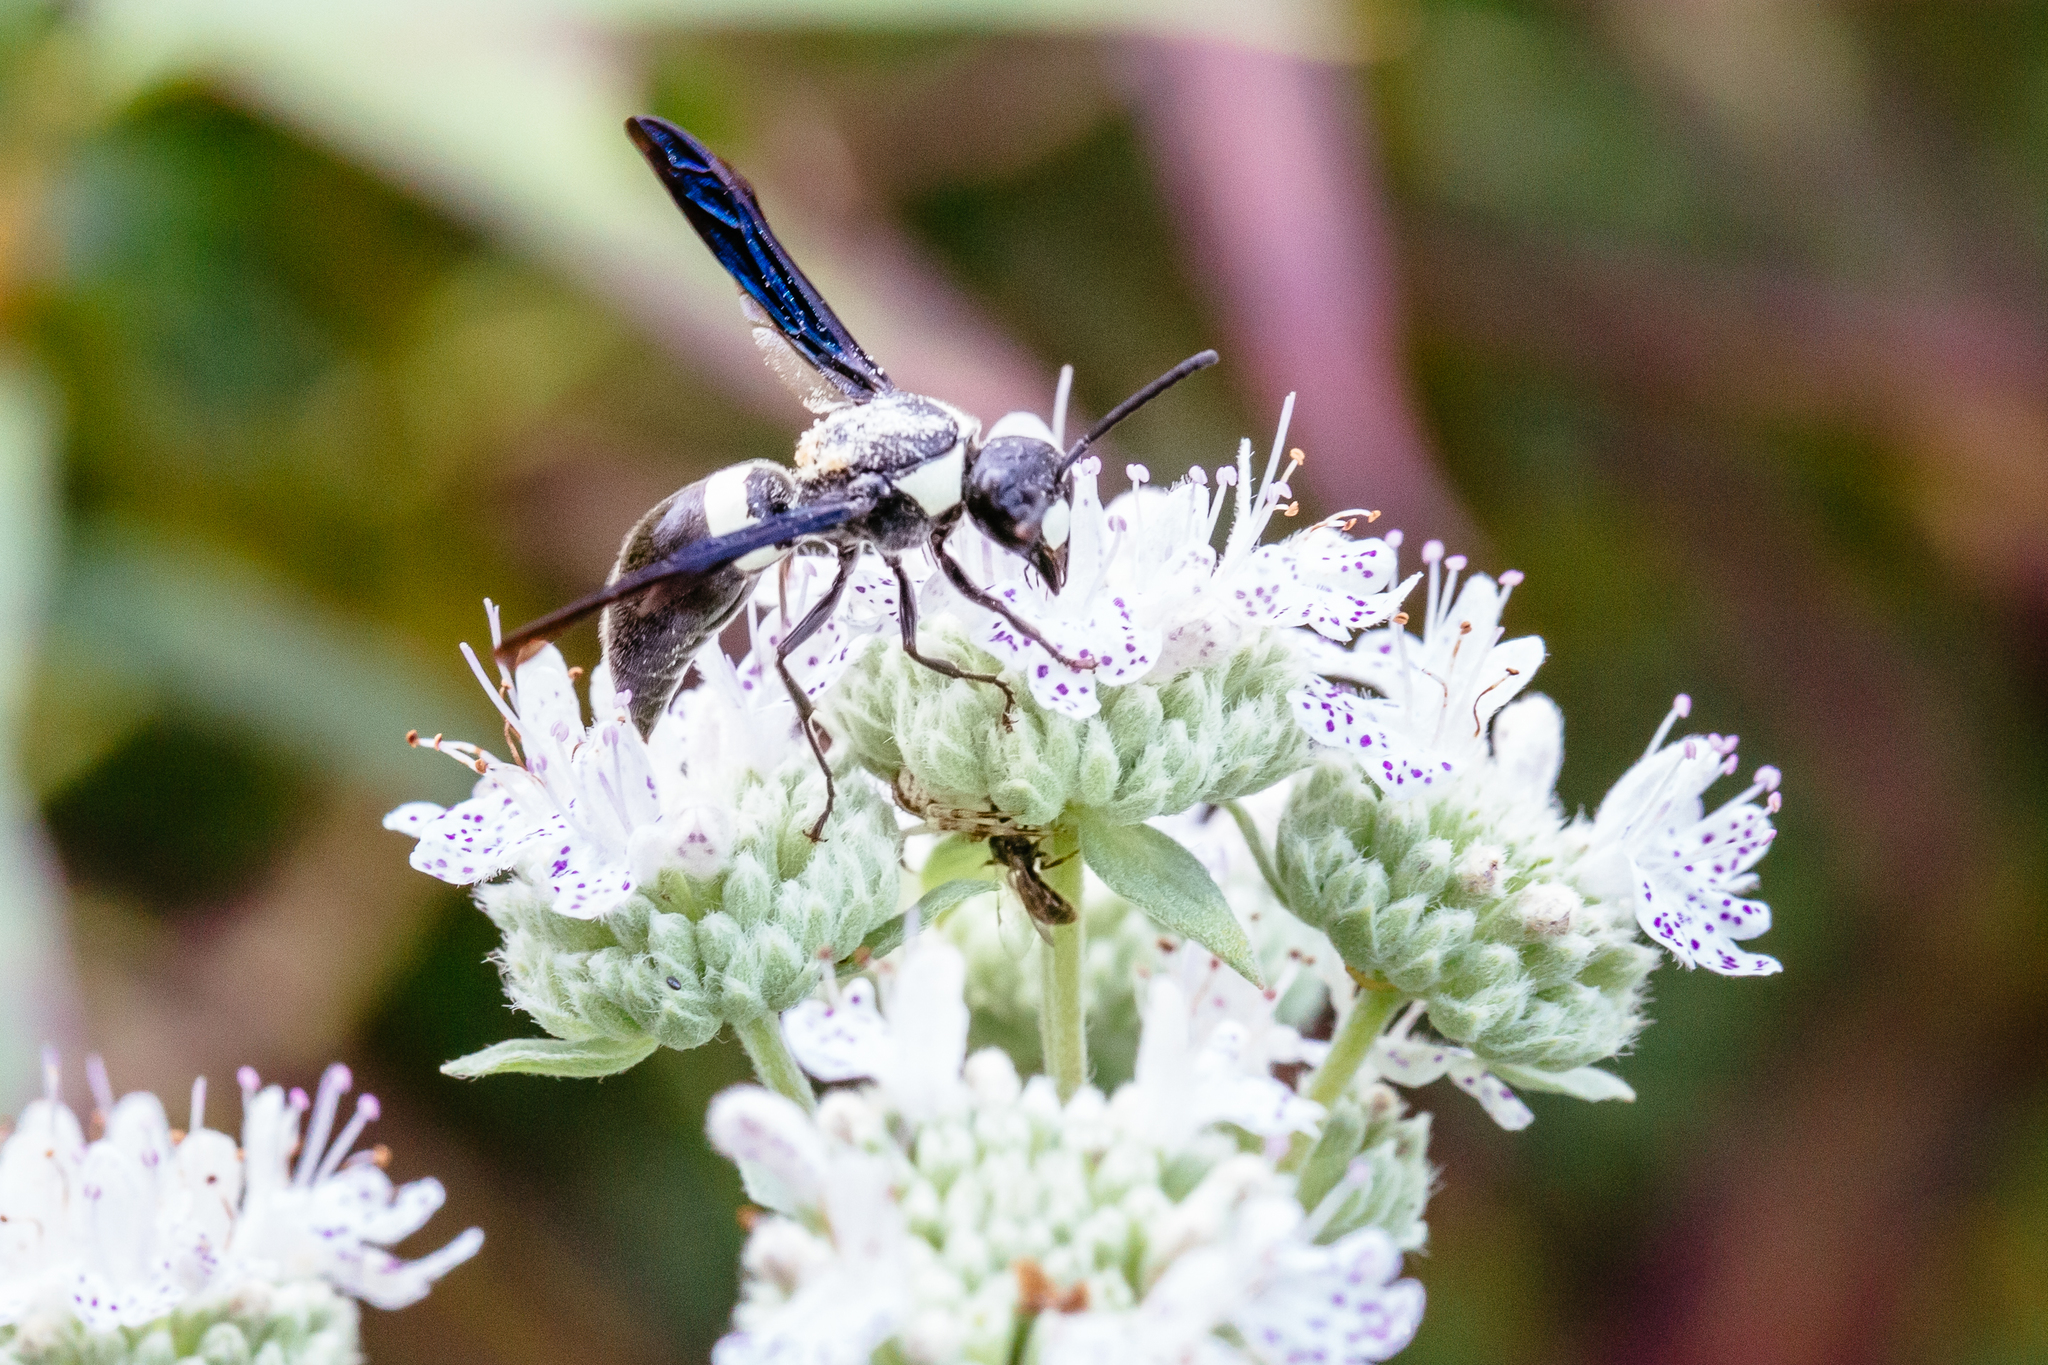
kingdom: Animalia
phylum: Arthropoda
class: Insecta
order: Hymenoptera
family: Eumenidae
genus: Monobia
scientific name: Monobia quadridens
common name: Four-toothed mason wasp
